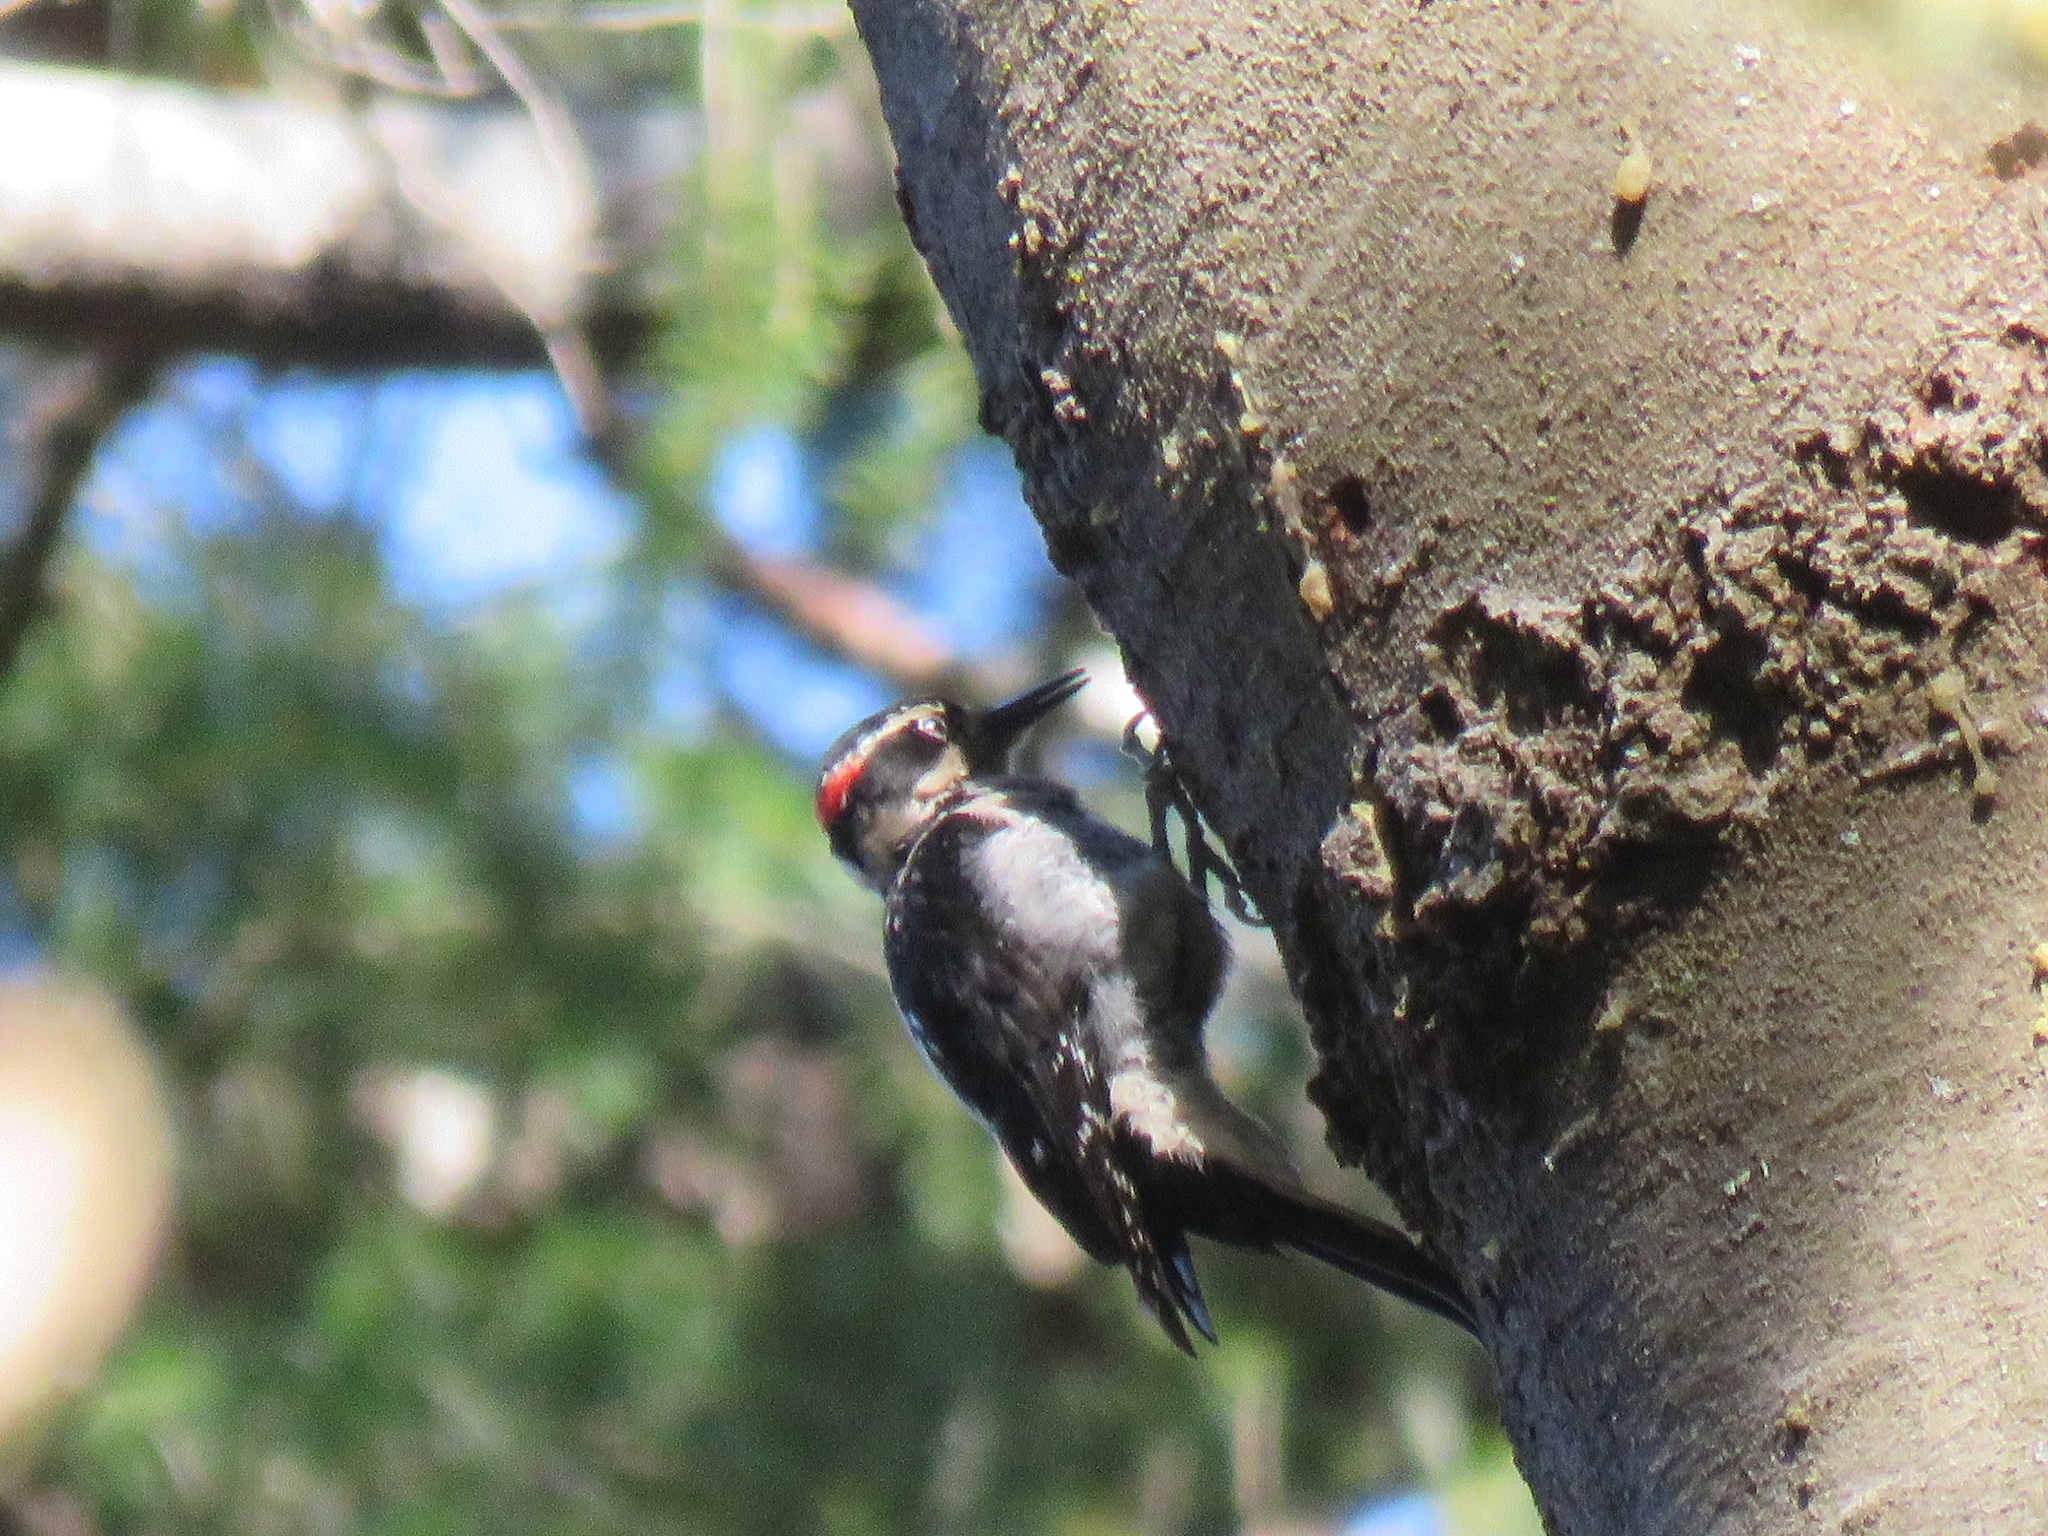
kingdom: Animalia
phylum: Chordata
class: Aves
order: Piciformes
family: Picidae
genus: Leuconotopicus
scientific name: Leuconotopicus villosus
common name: Hairy woodpecker
